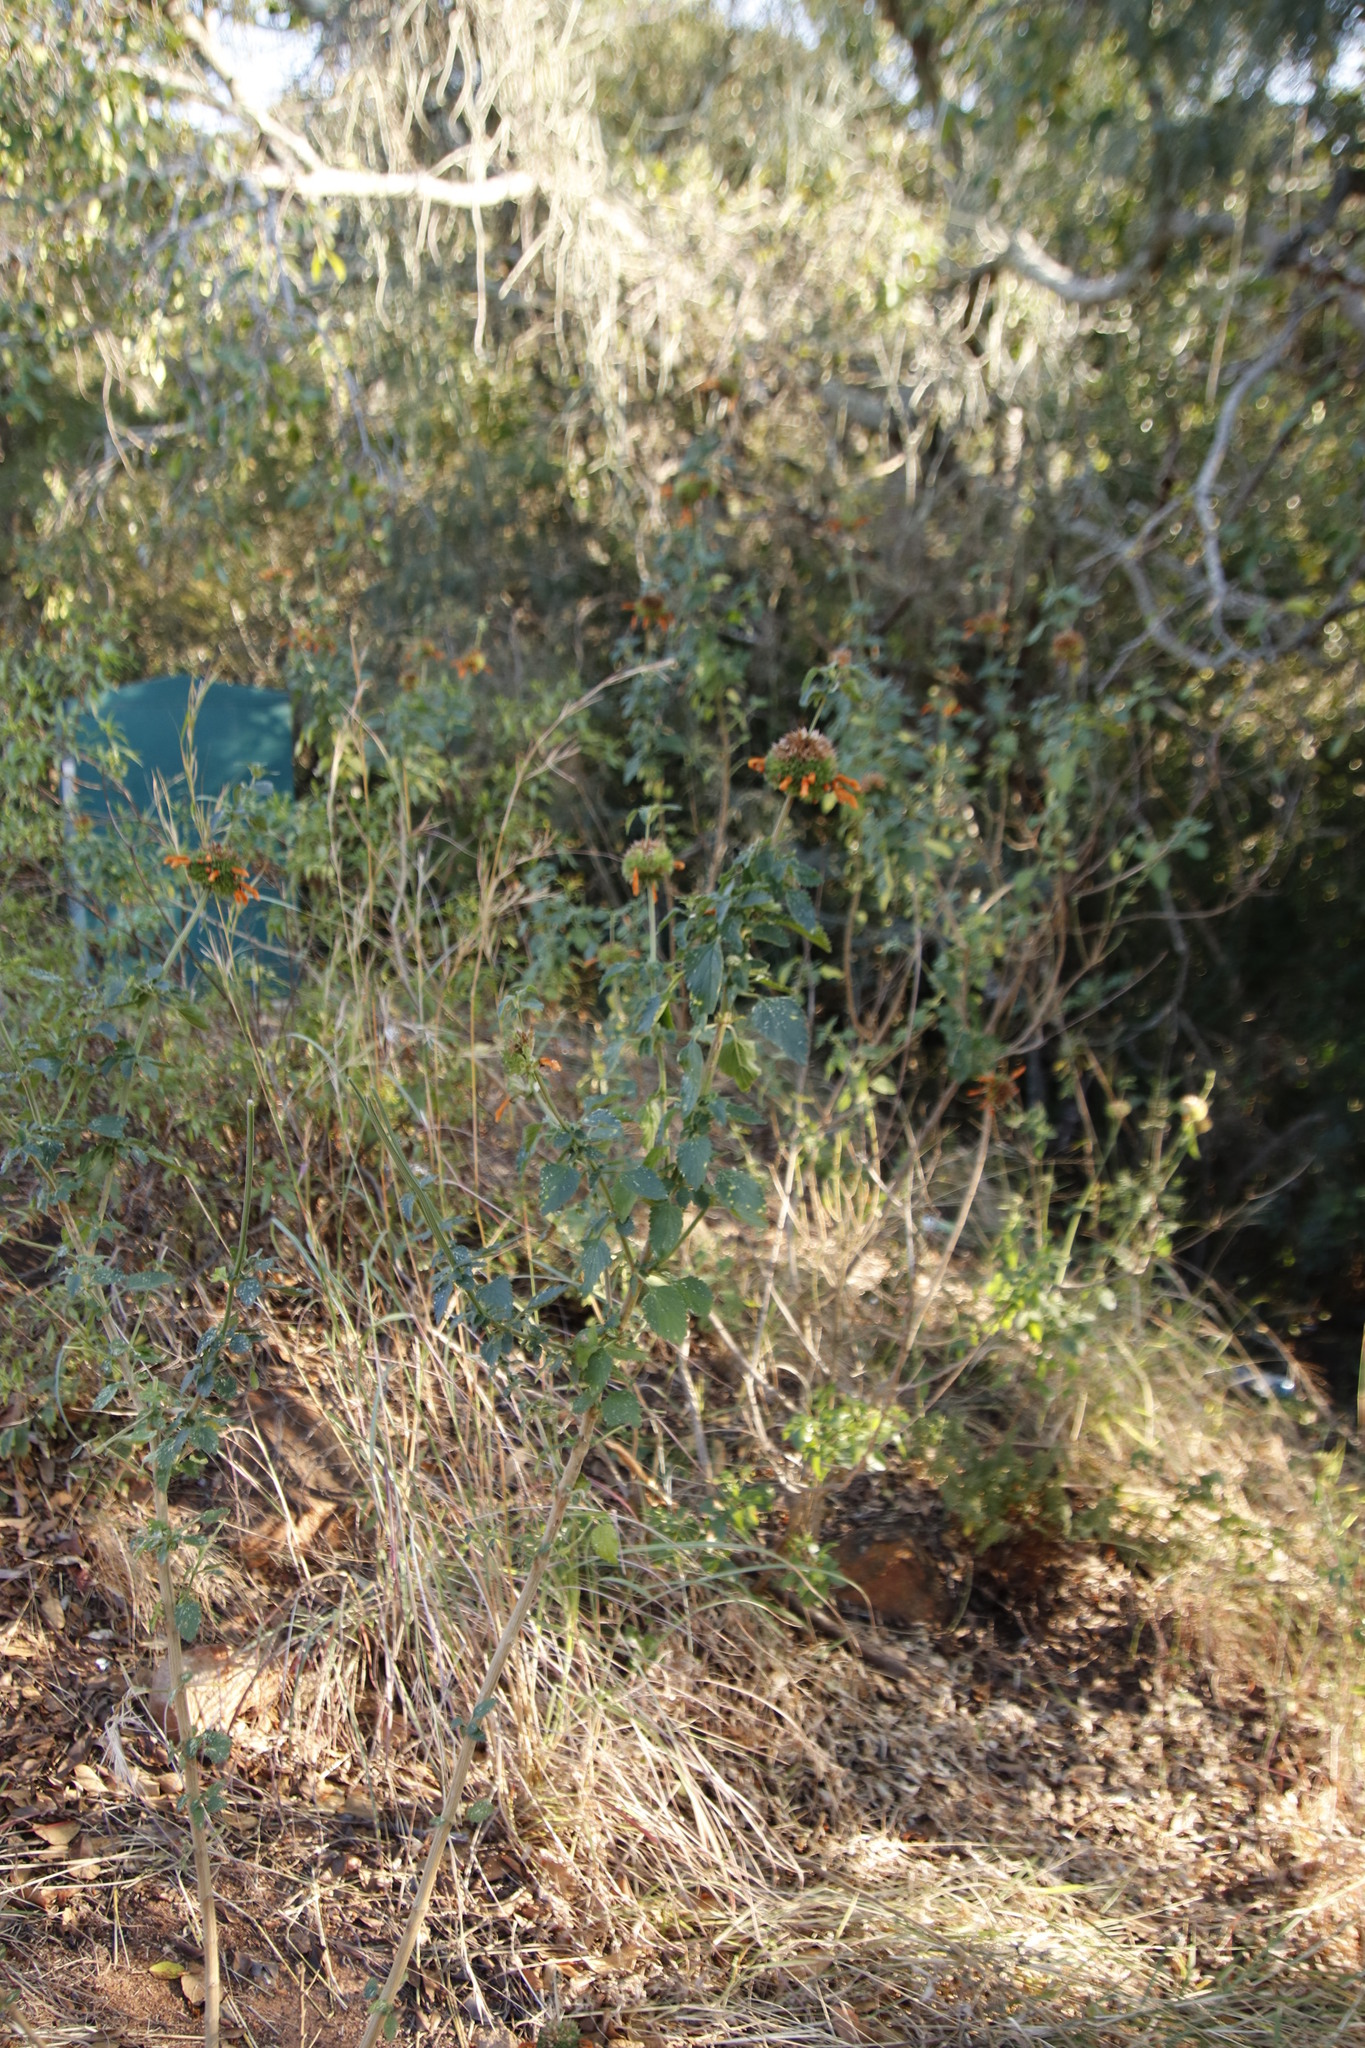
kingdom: Plantae
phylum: Tracheophyta
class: Magnoliopsida
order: Lamiales
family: Lamiaceae
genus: Leonotis
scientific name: Leonotis ocymifolia
